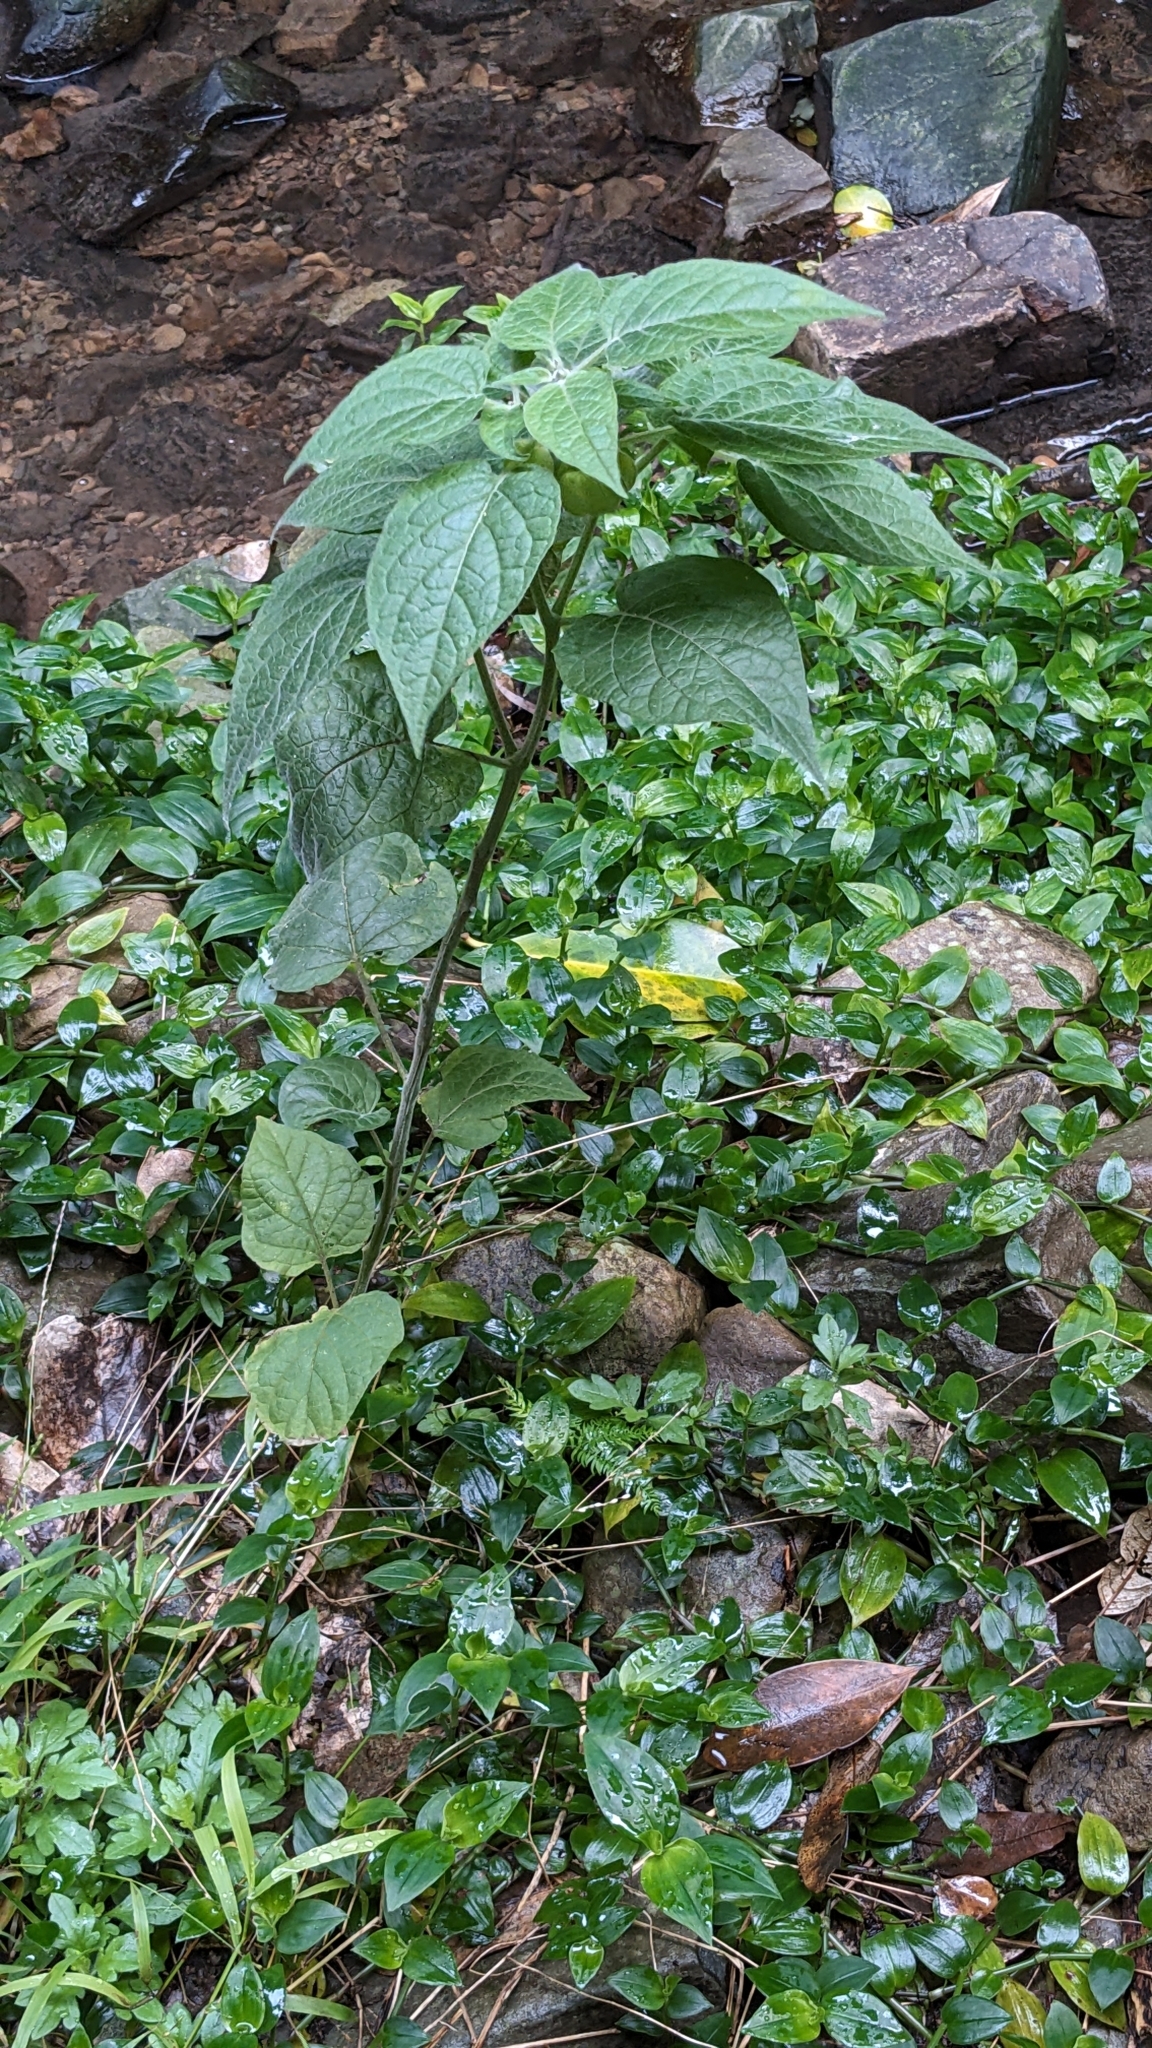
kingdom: Plantae
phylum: Tracheophyta
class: Magnoliopsida
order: Solanales
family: Solanaceae
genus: Physalis
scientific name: Physalis peruviana
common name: Cape-gooseberry
